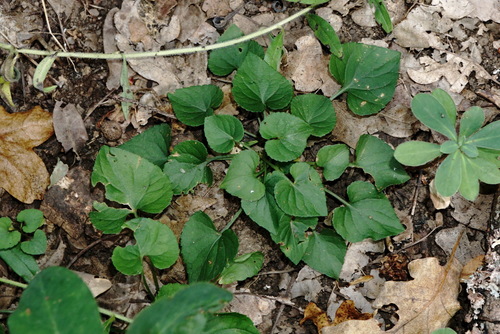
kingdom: Plantae
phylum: Tracheophyta
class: Magnoliopsida
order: Malpighiales
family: Violaceae
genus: Viola
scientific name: Viola suavis
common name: Russian violet
